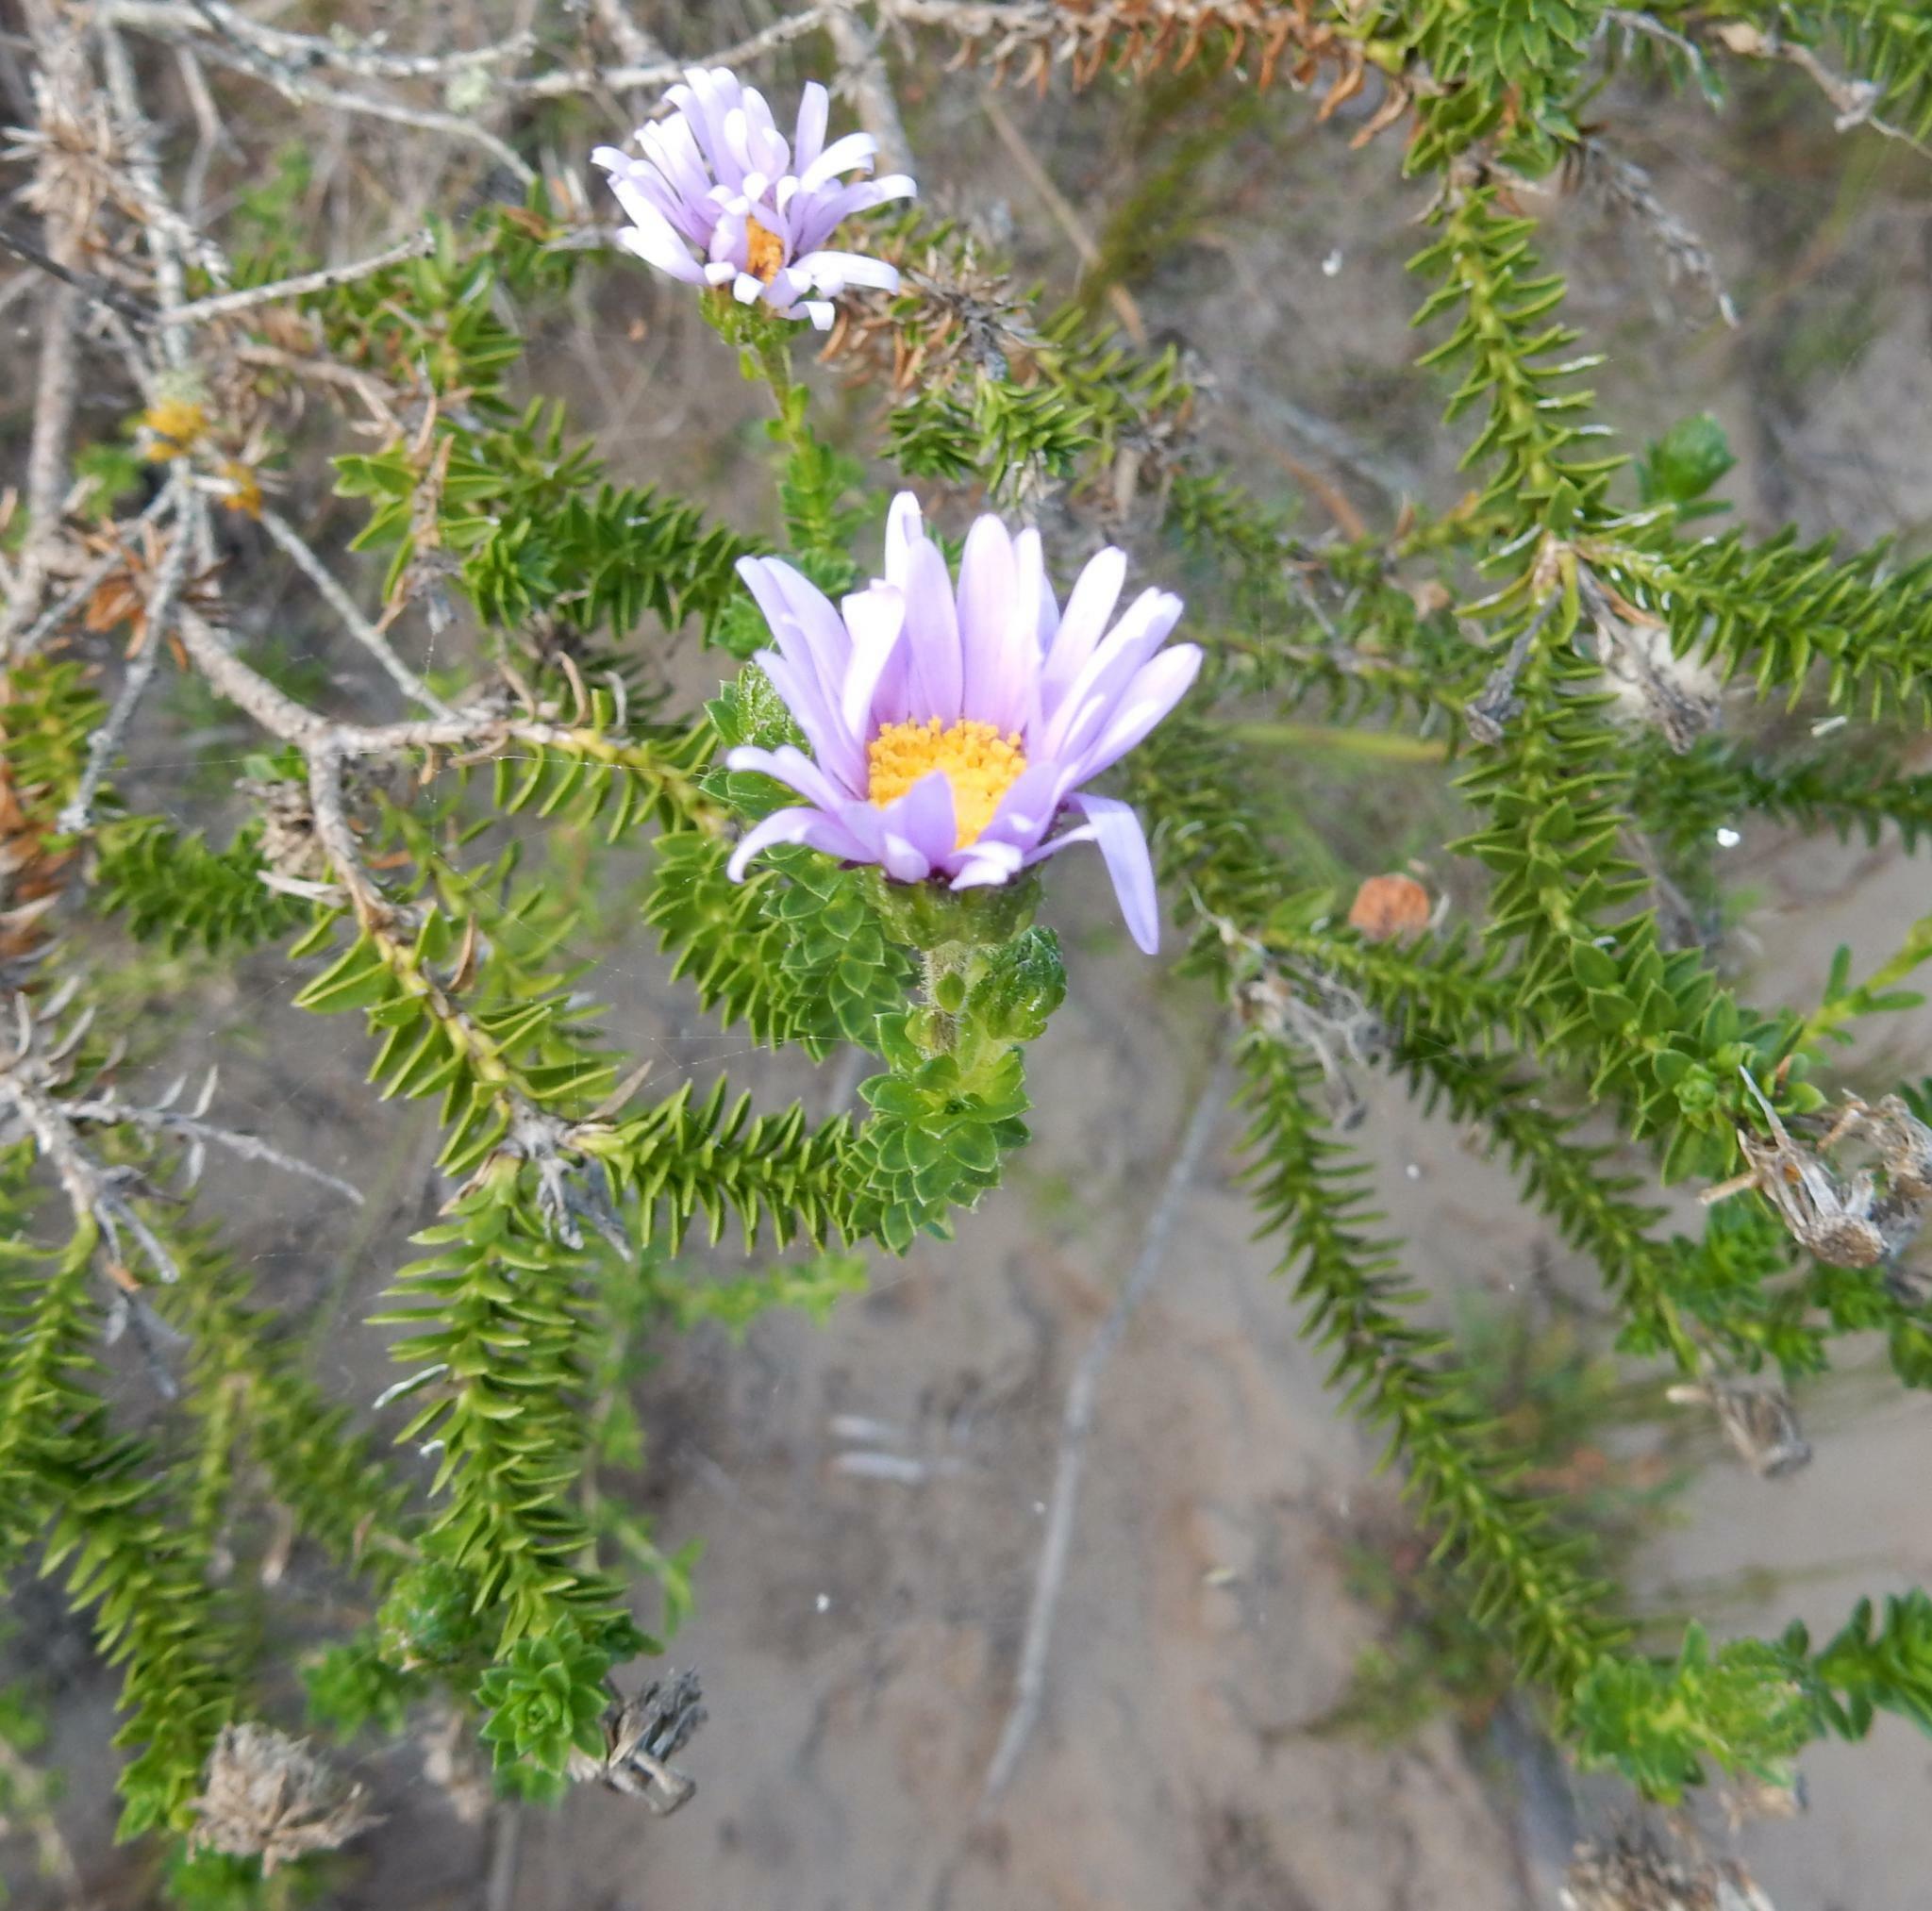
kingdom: Plantae
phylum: Tracheophyta
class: Magnoliopsida
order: Asterales
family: Asteraceae
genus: Felicia
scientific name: Felicia echinata
